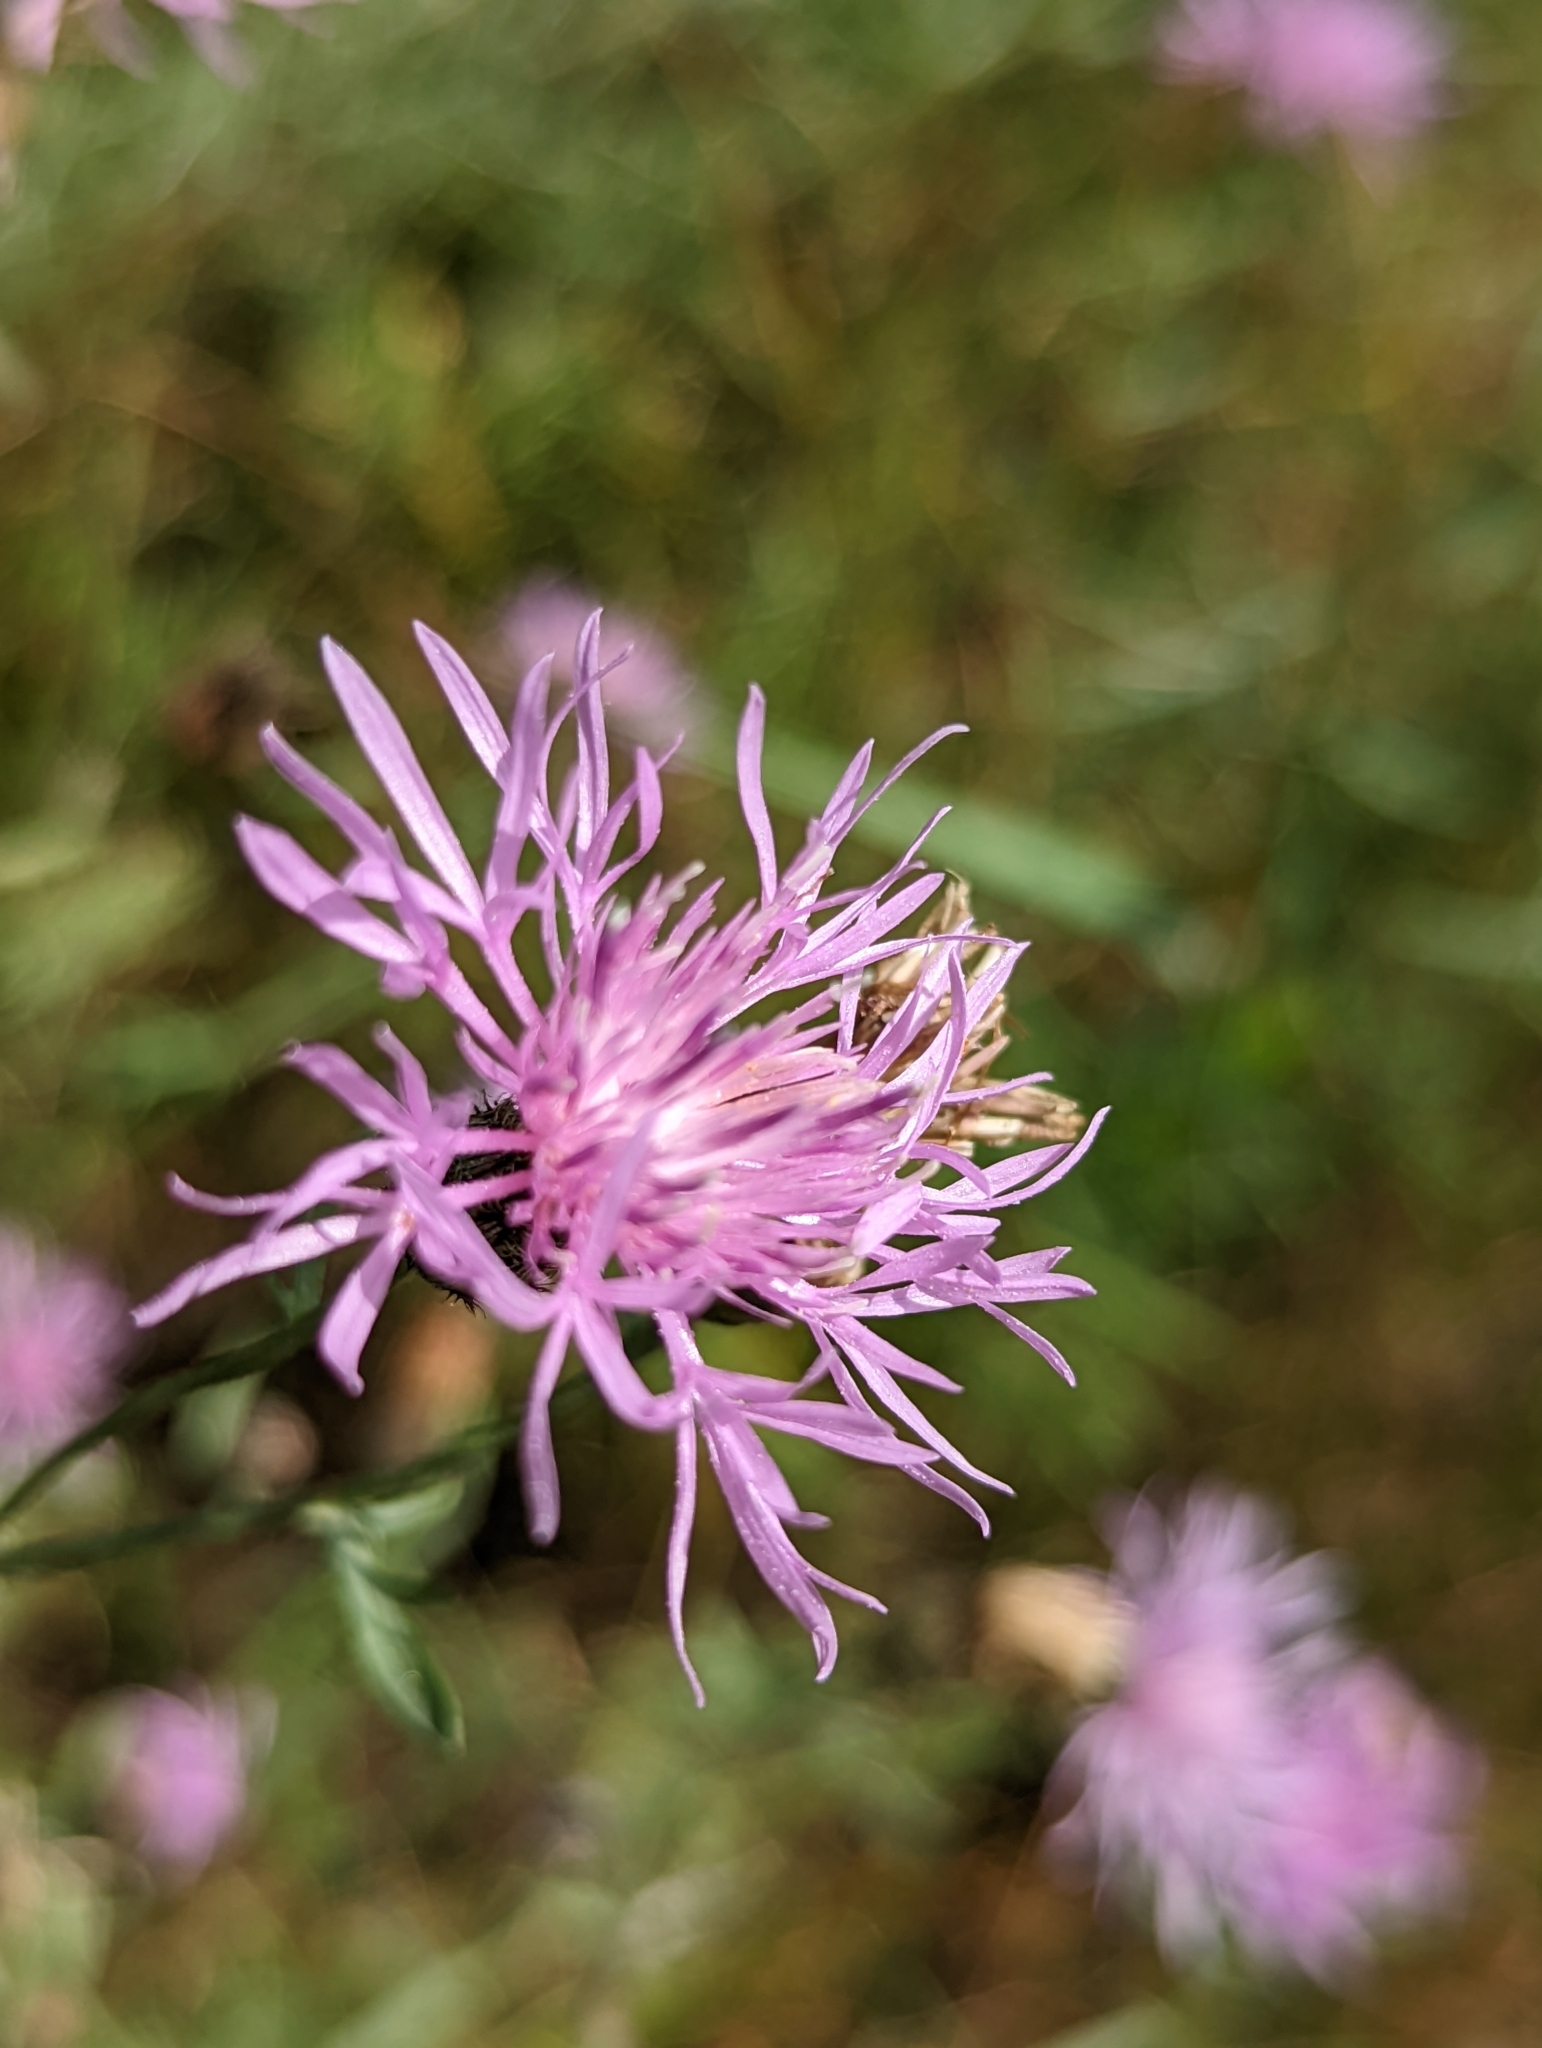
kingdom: Plantae
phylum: Tracheophyta
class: Magnoliopsida
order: Asterales
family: Asteraceae
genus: Centaurea
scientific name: Centaurea stoebe
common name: Spotted knapweed
